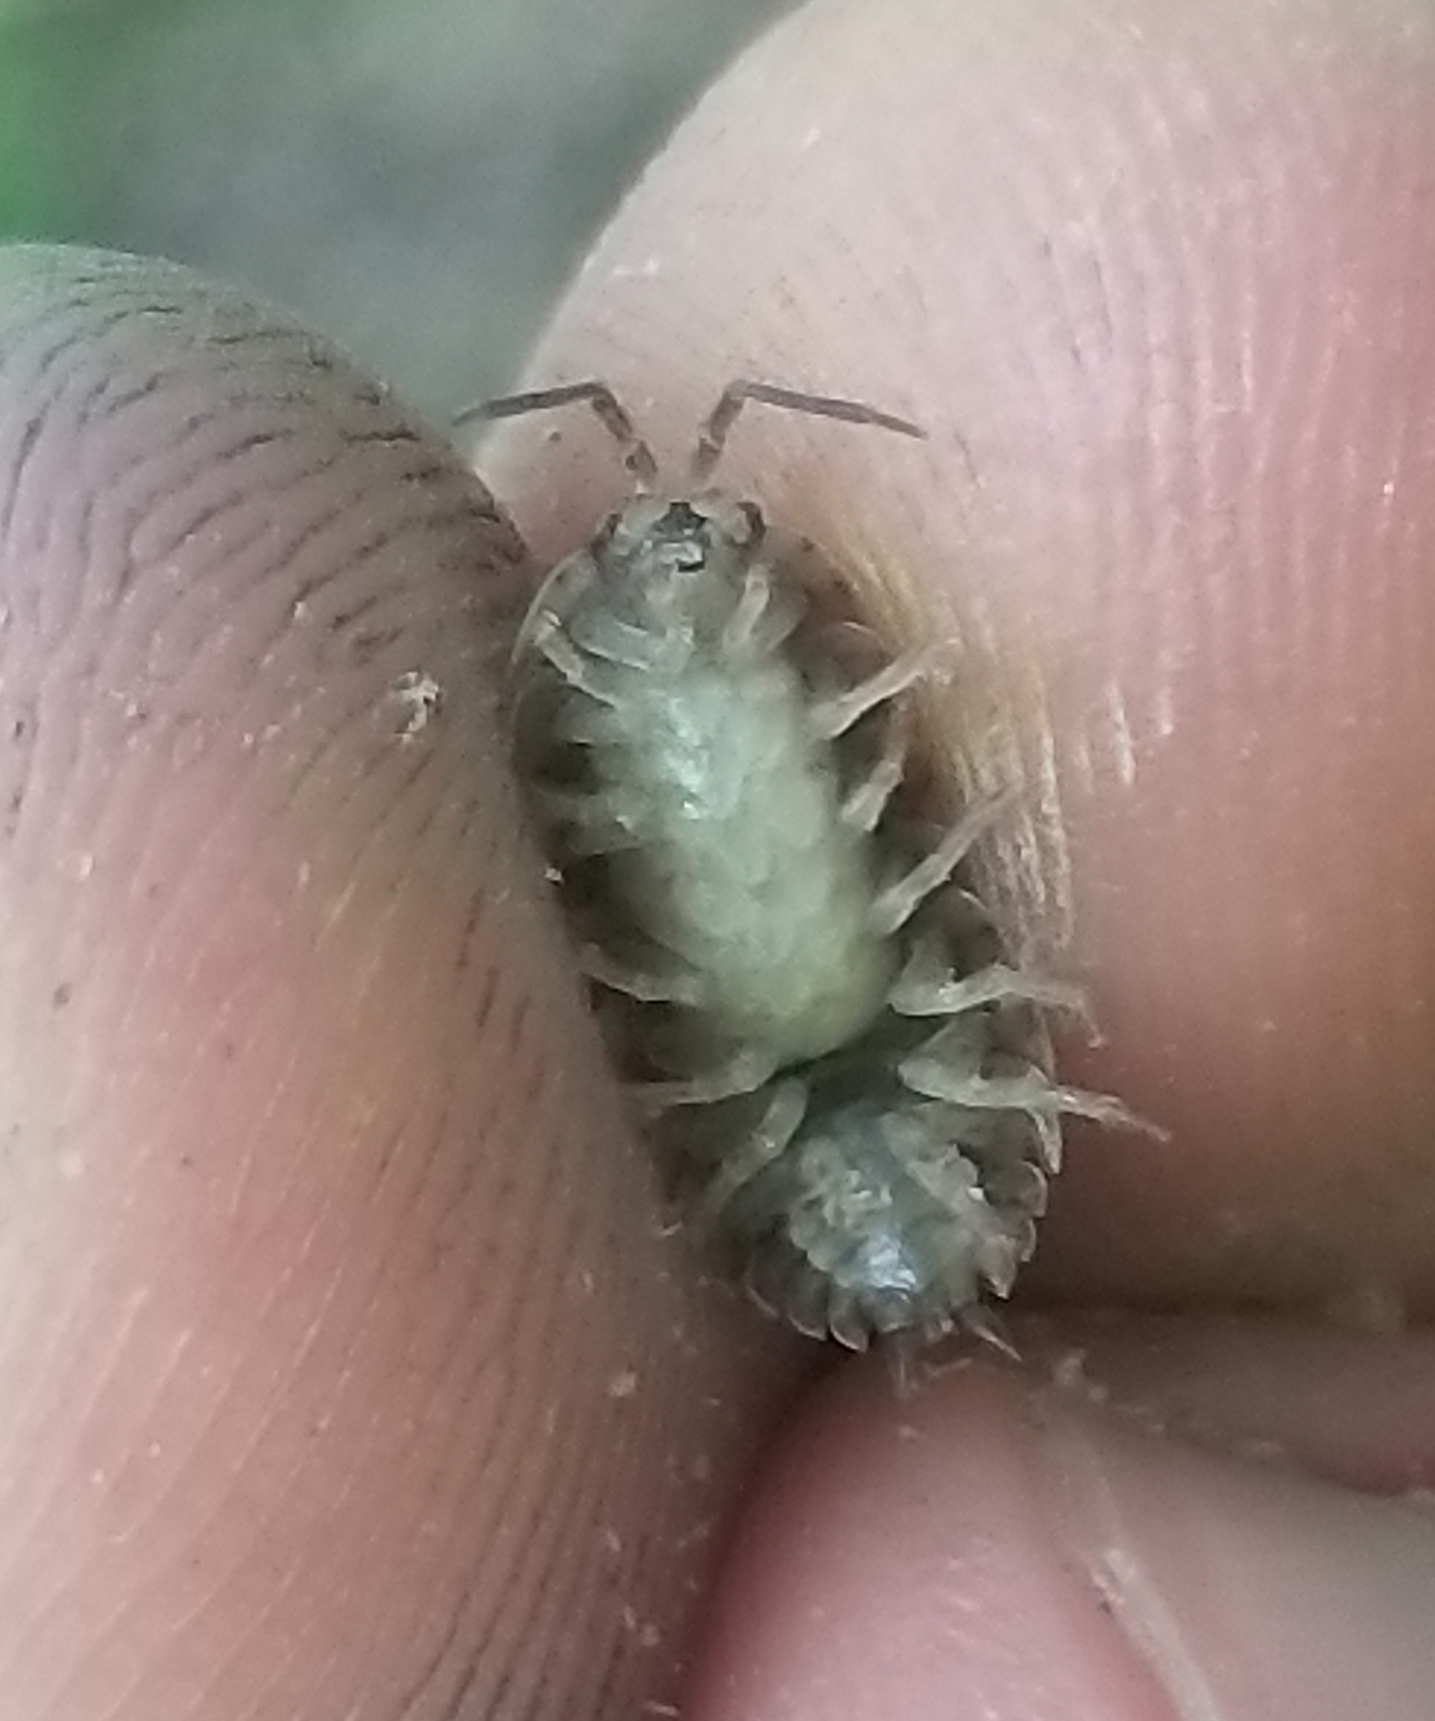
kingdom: Animalia
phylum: Arthropoda
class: Malacostraca
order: Isopoda
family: Trachelipodidae
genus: Trachelipus
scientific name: Trachelipus rathkii
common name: Isopod
